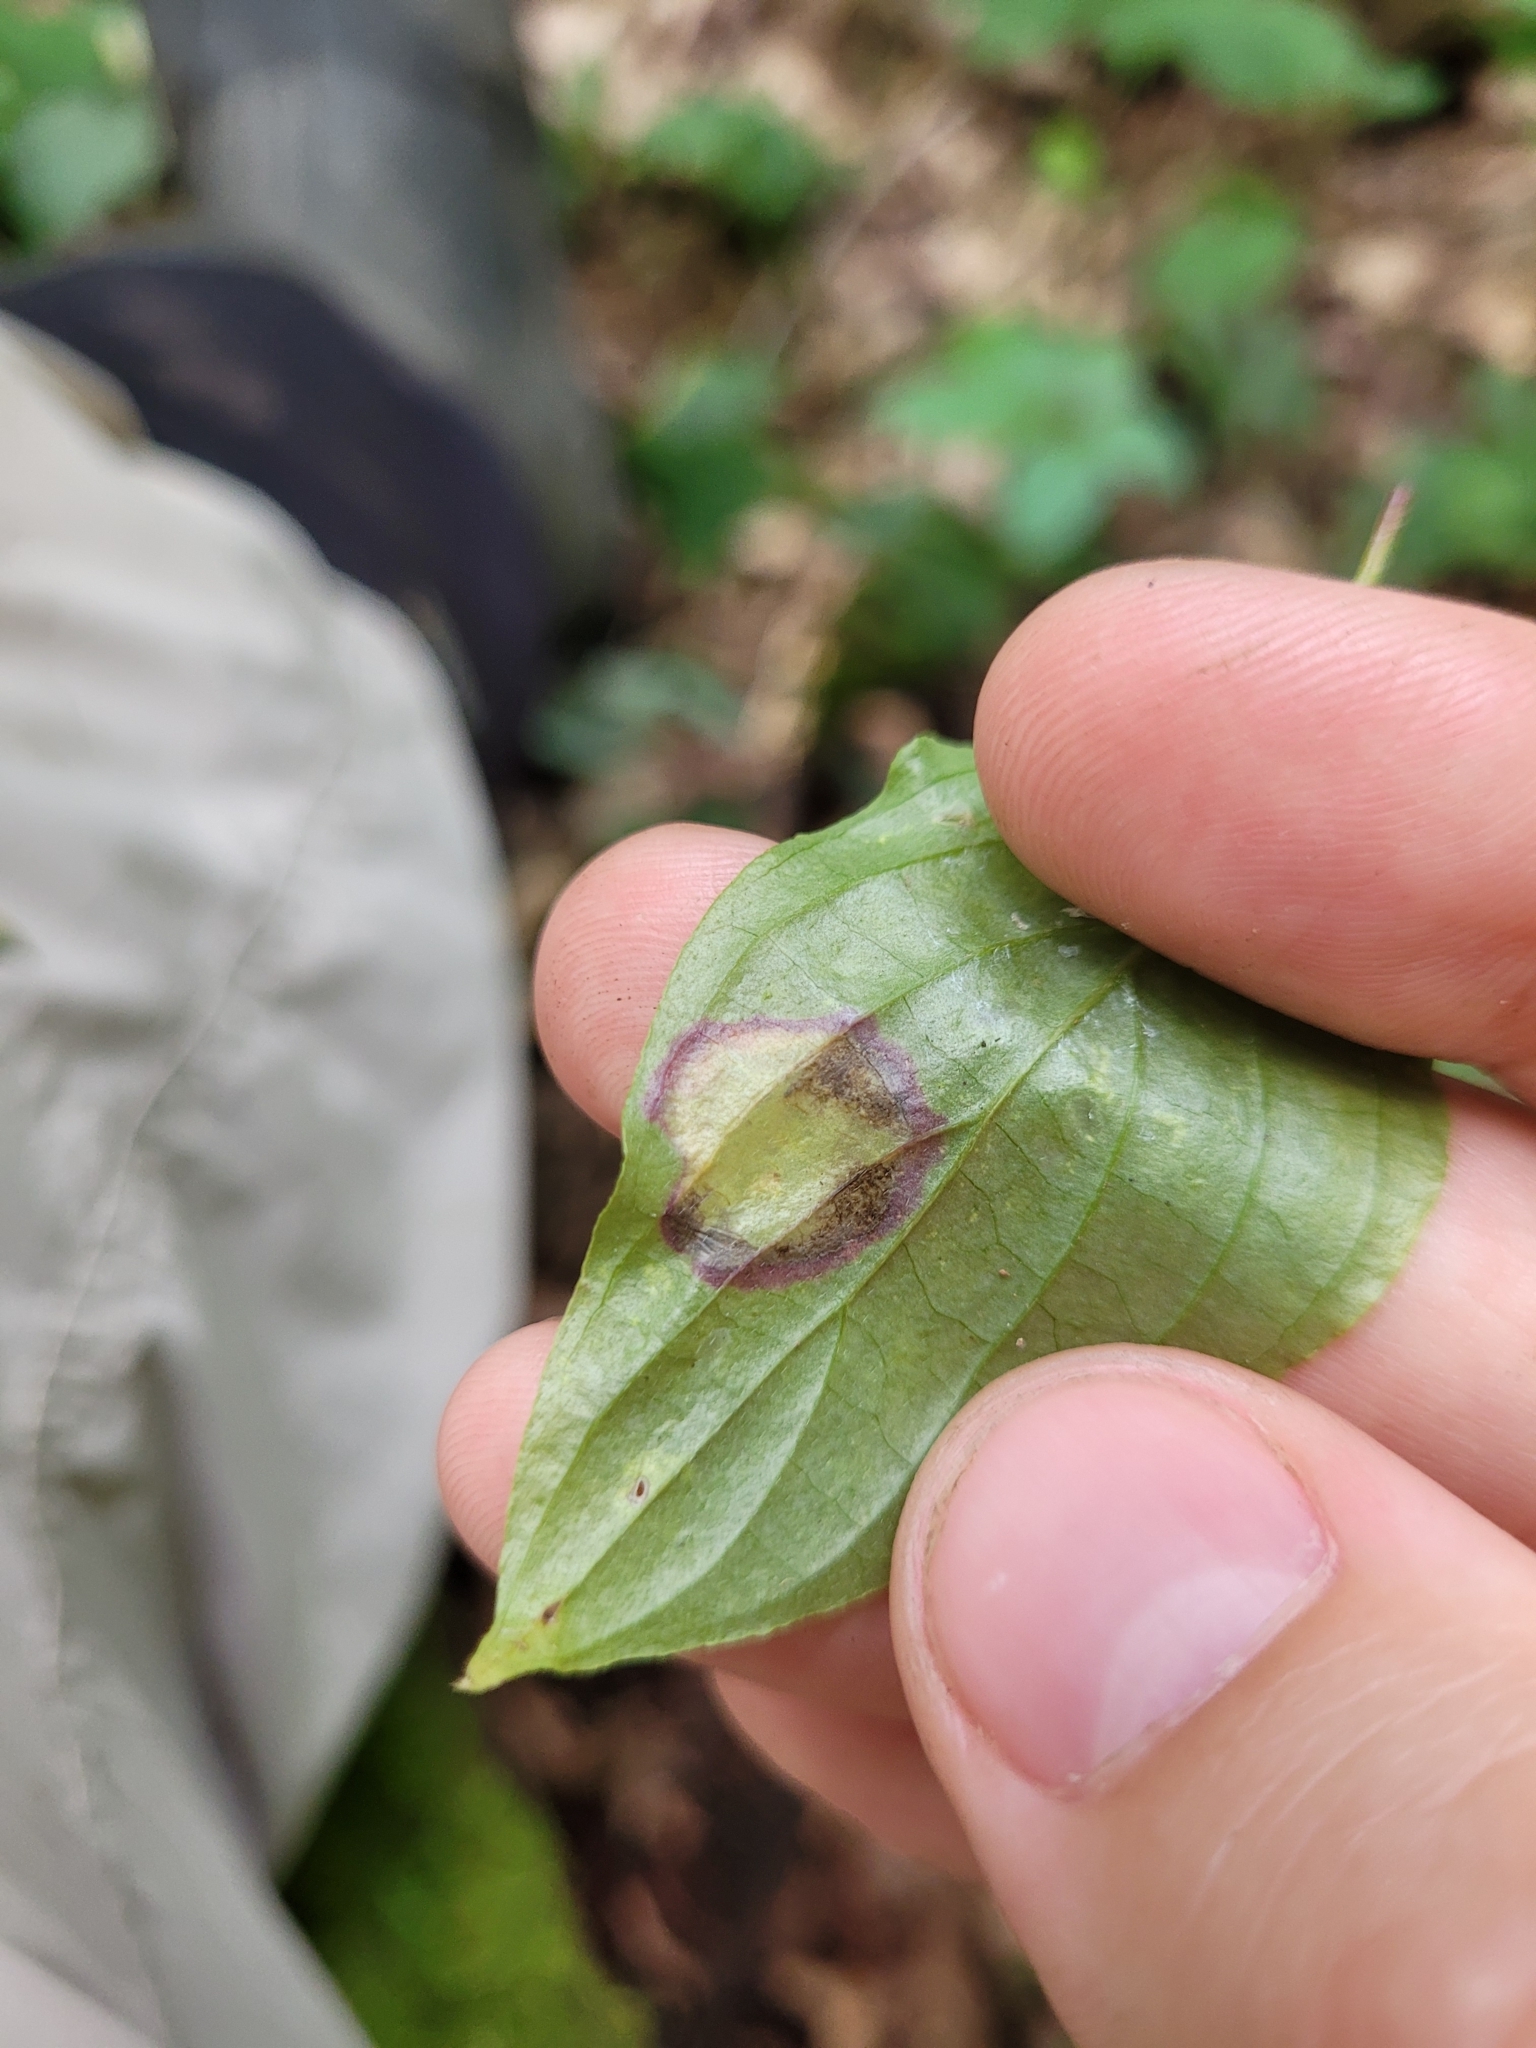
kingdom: Animalia
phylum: Arthropoda
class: Insecta
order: Diptera
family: Cecidomyiidae
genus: Parallelodiplosis
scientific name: Parallelodiplosis subtruncata
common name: Dogwood eyespot gall midge
